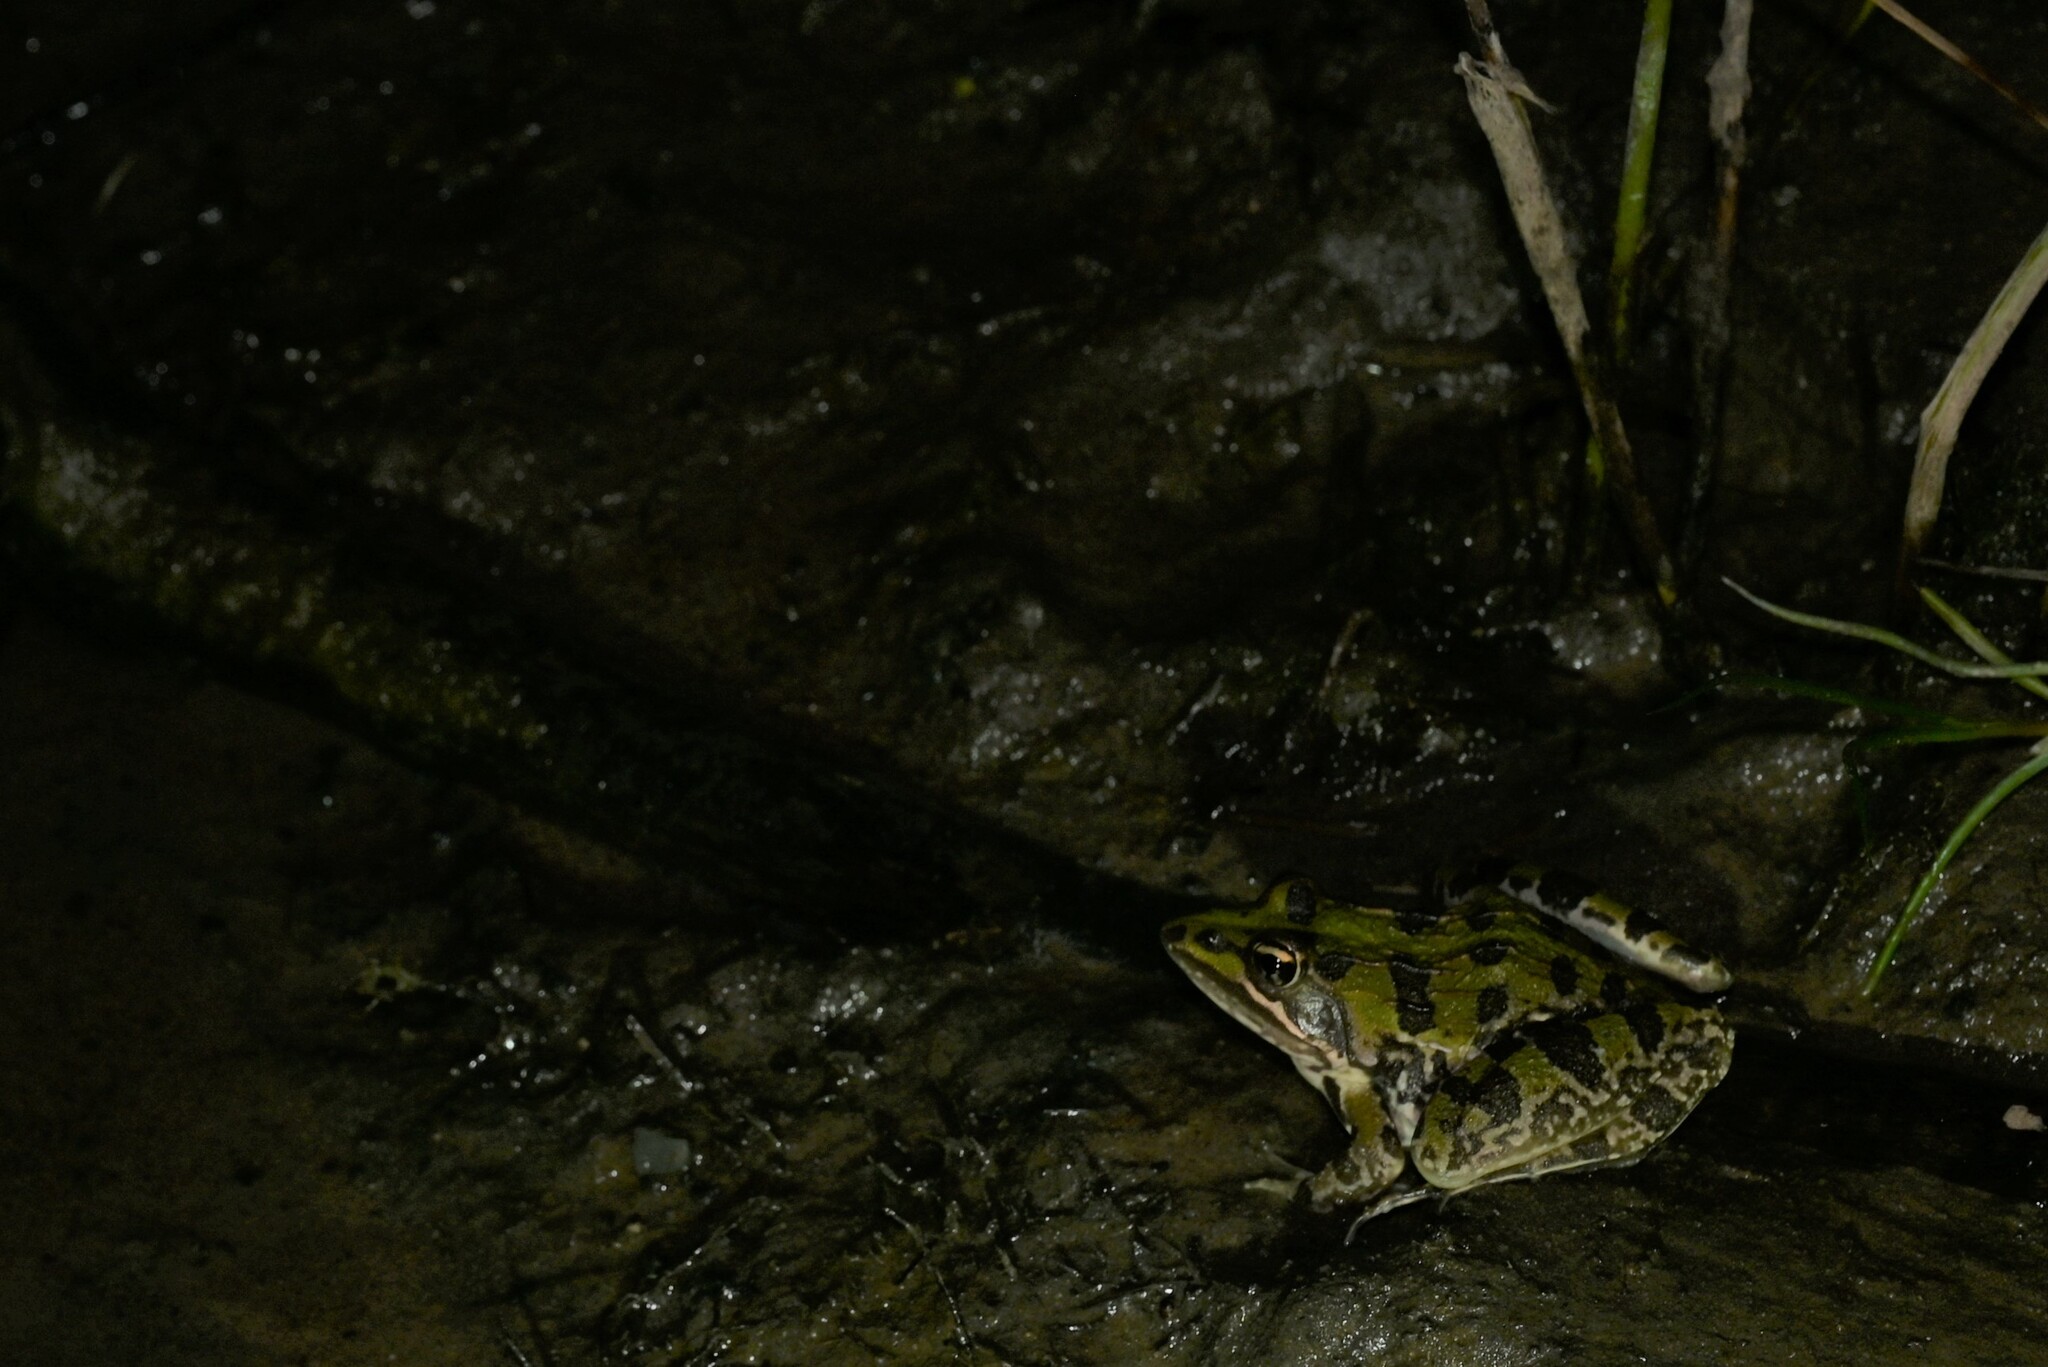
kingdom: Animalia
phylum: Chordata
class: Amphibia
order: Anura
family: Pyxicephalidae
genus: Amietia
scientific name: Amietia delalandii
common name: Delalande's river frog
